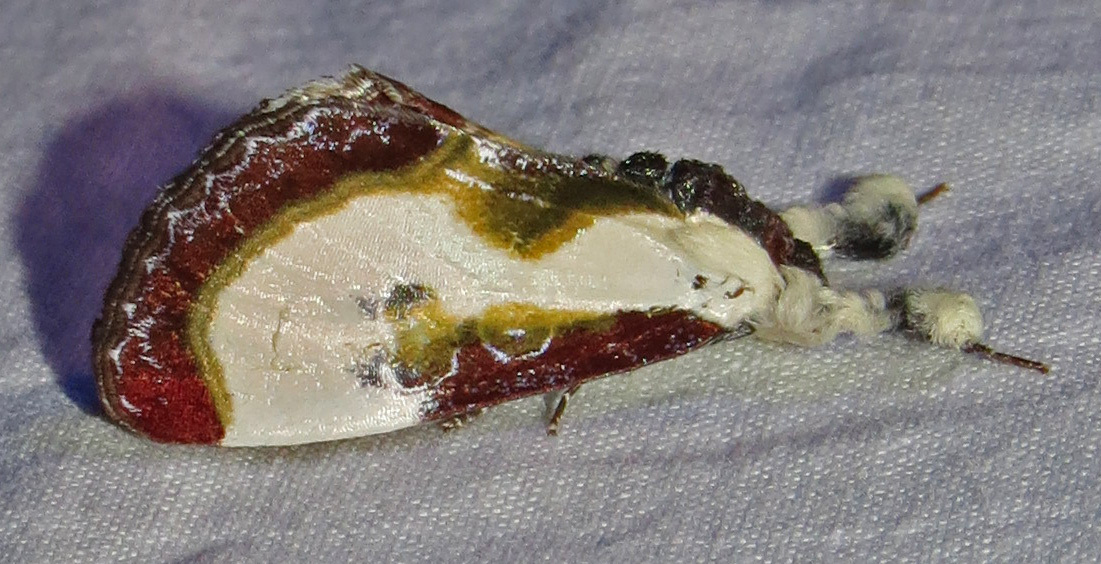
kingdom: Animalia
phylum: Arthropoda
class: Insecta
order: Lepidoptera
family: Noctuidae
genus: Eudryas
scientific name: Eudryas grata
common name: Beautiful wood-nymph
